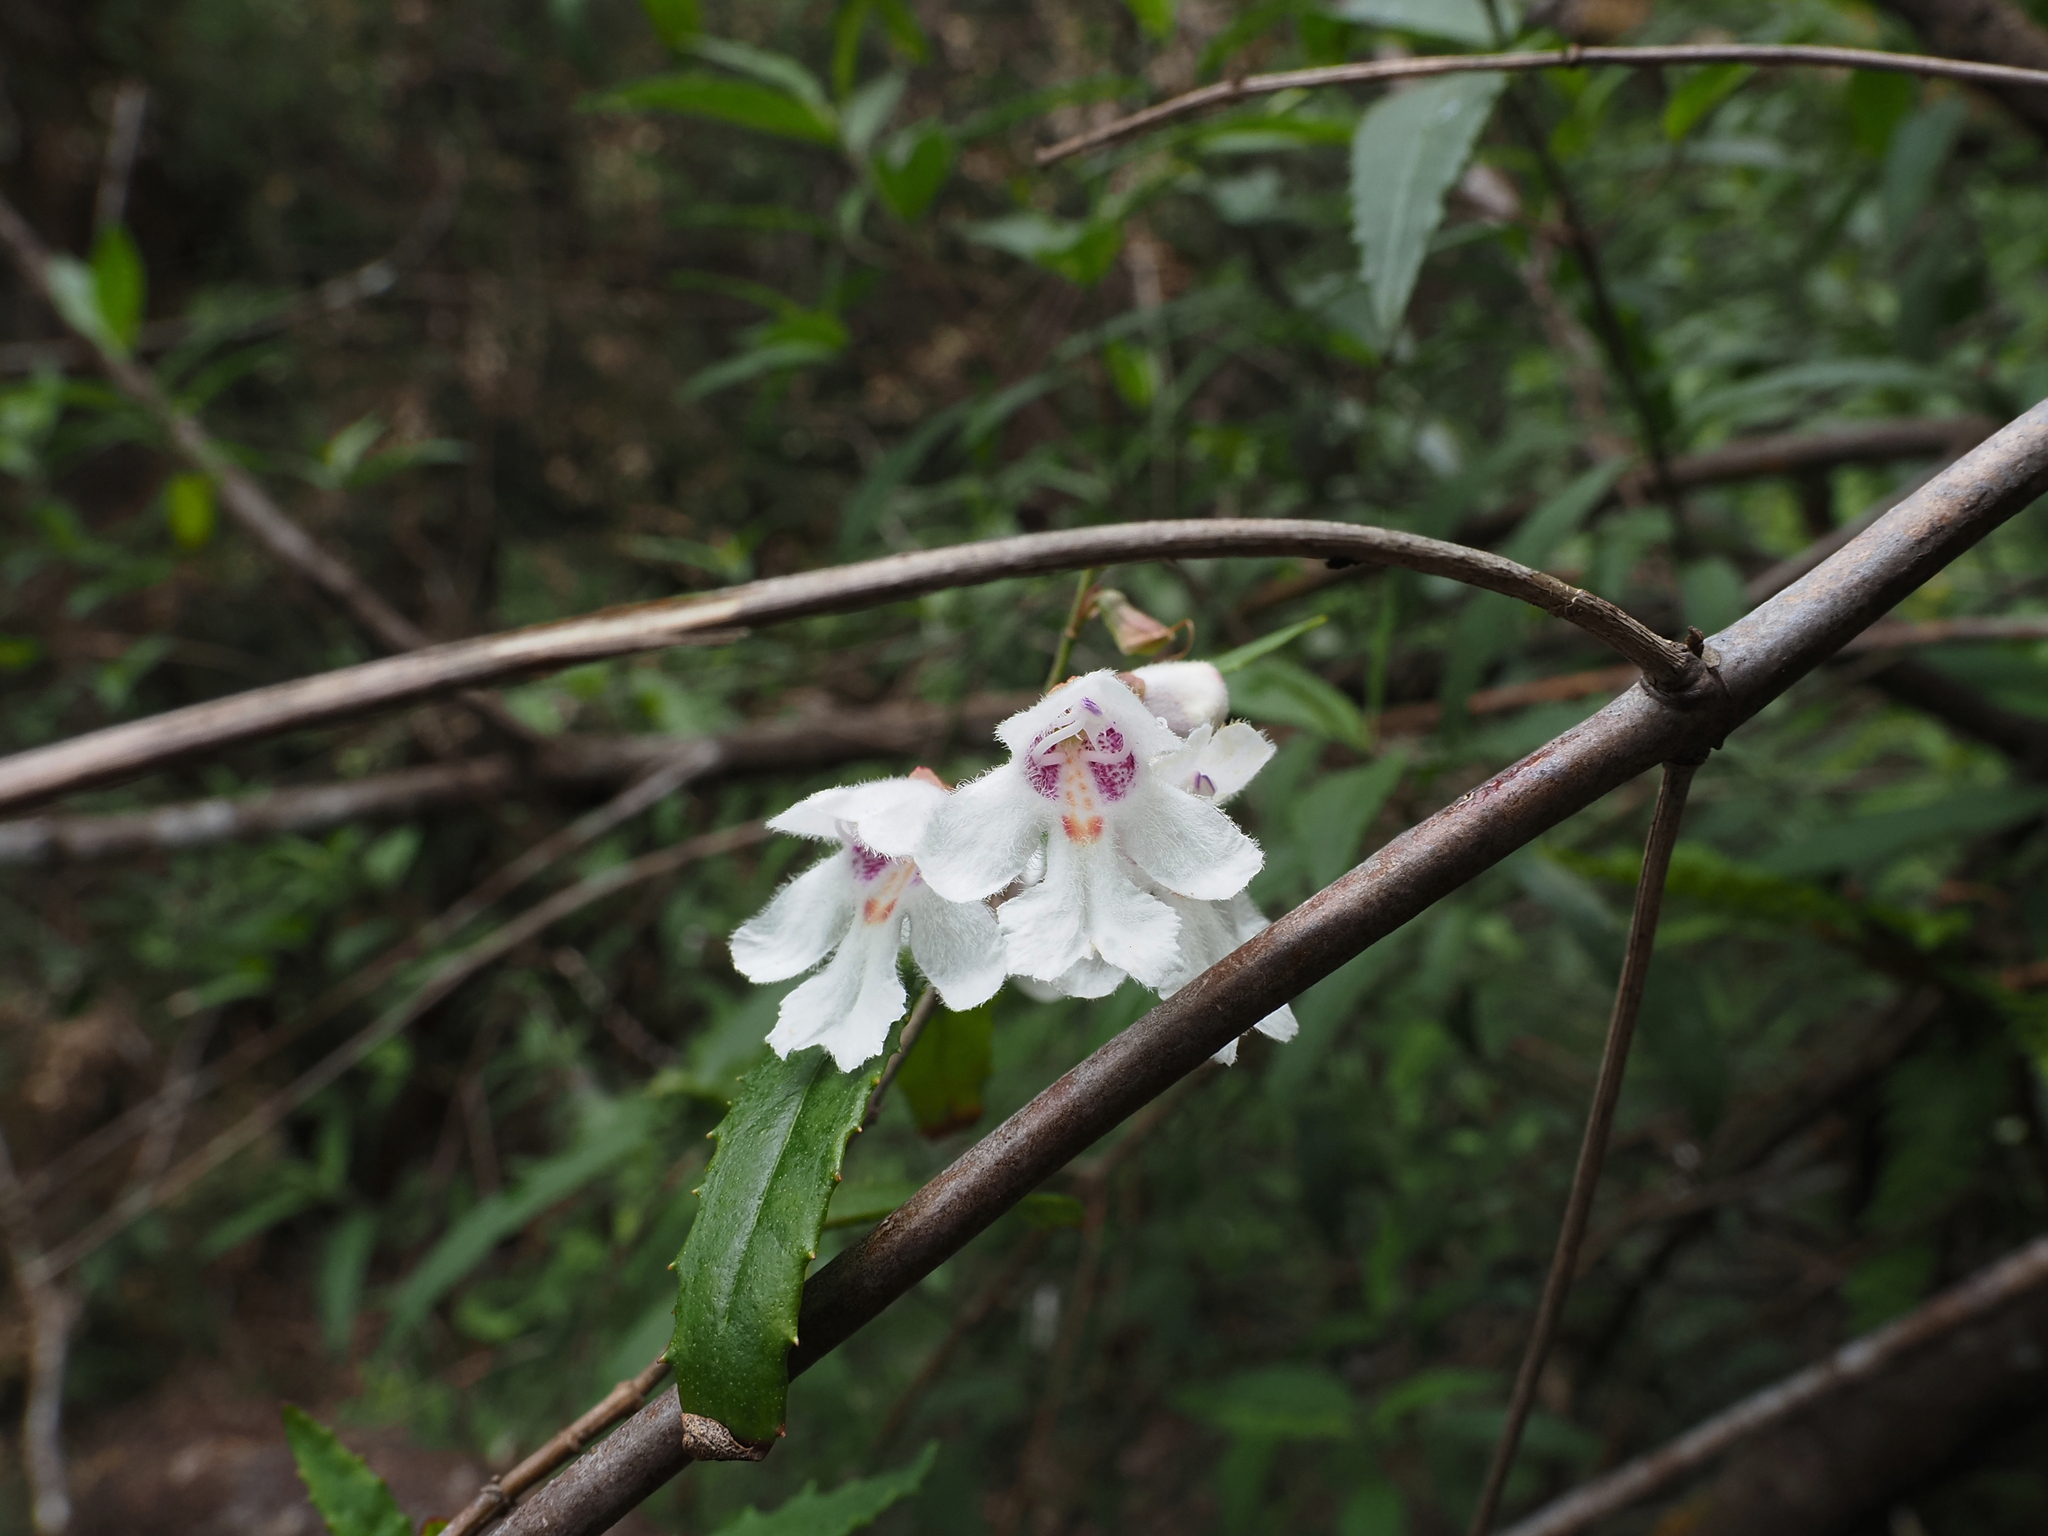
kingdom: Plantae
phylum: Tracheophyta
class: Magnoliopsida
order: Lamiales
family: Lamiaceae
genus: Prostanthera
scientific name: Prostanthera lasianthos
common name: Mountain-lilac
